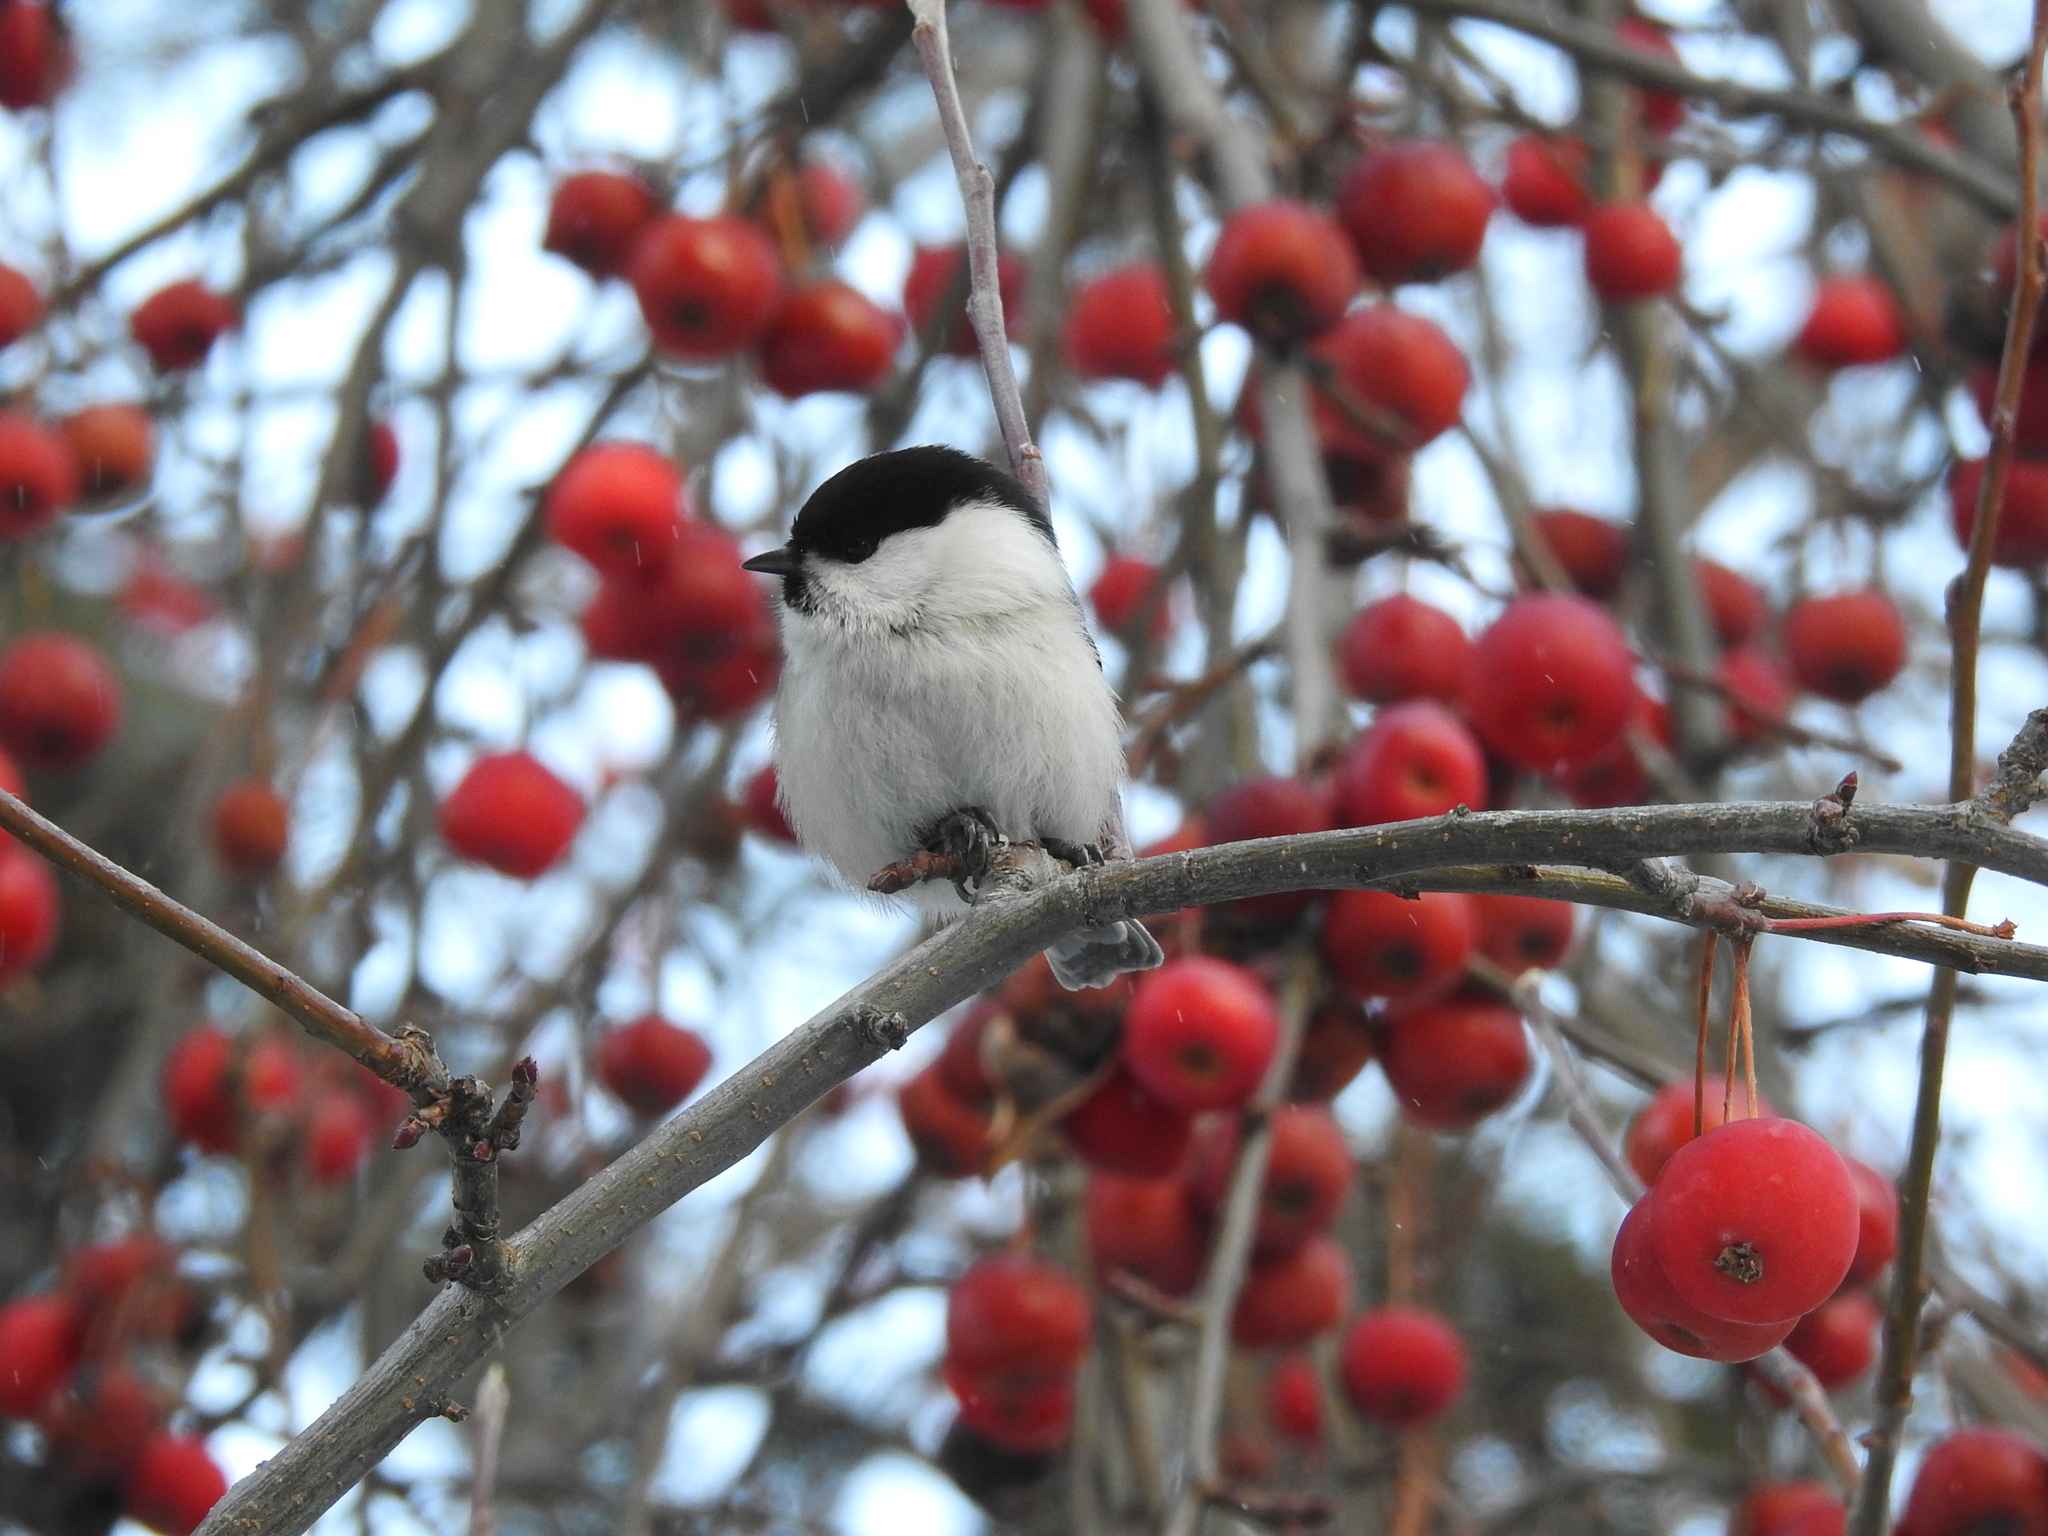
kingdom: Animalia
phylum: Chordata
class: Aves
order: Passeriformes
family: Paridae
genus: Poecile
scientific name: Poecile montanus
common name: Willow tit
